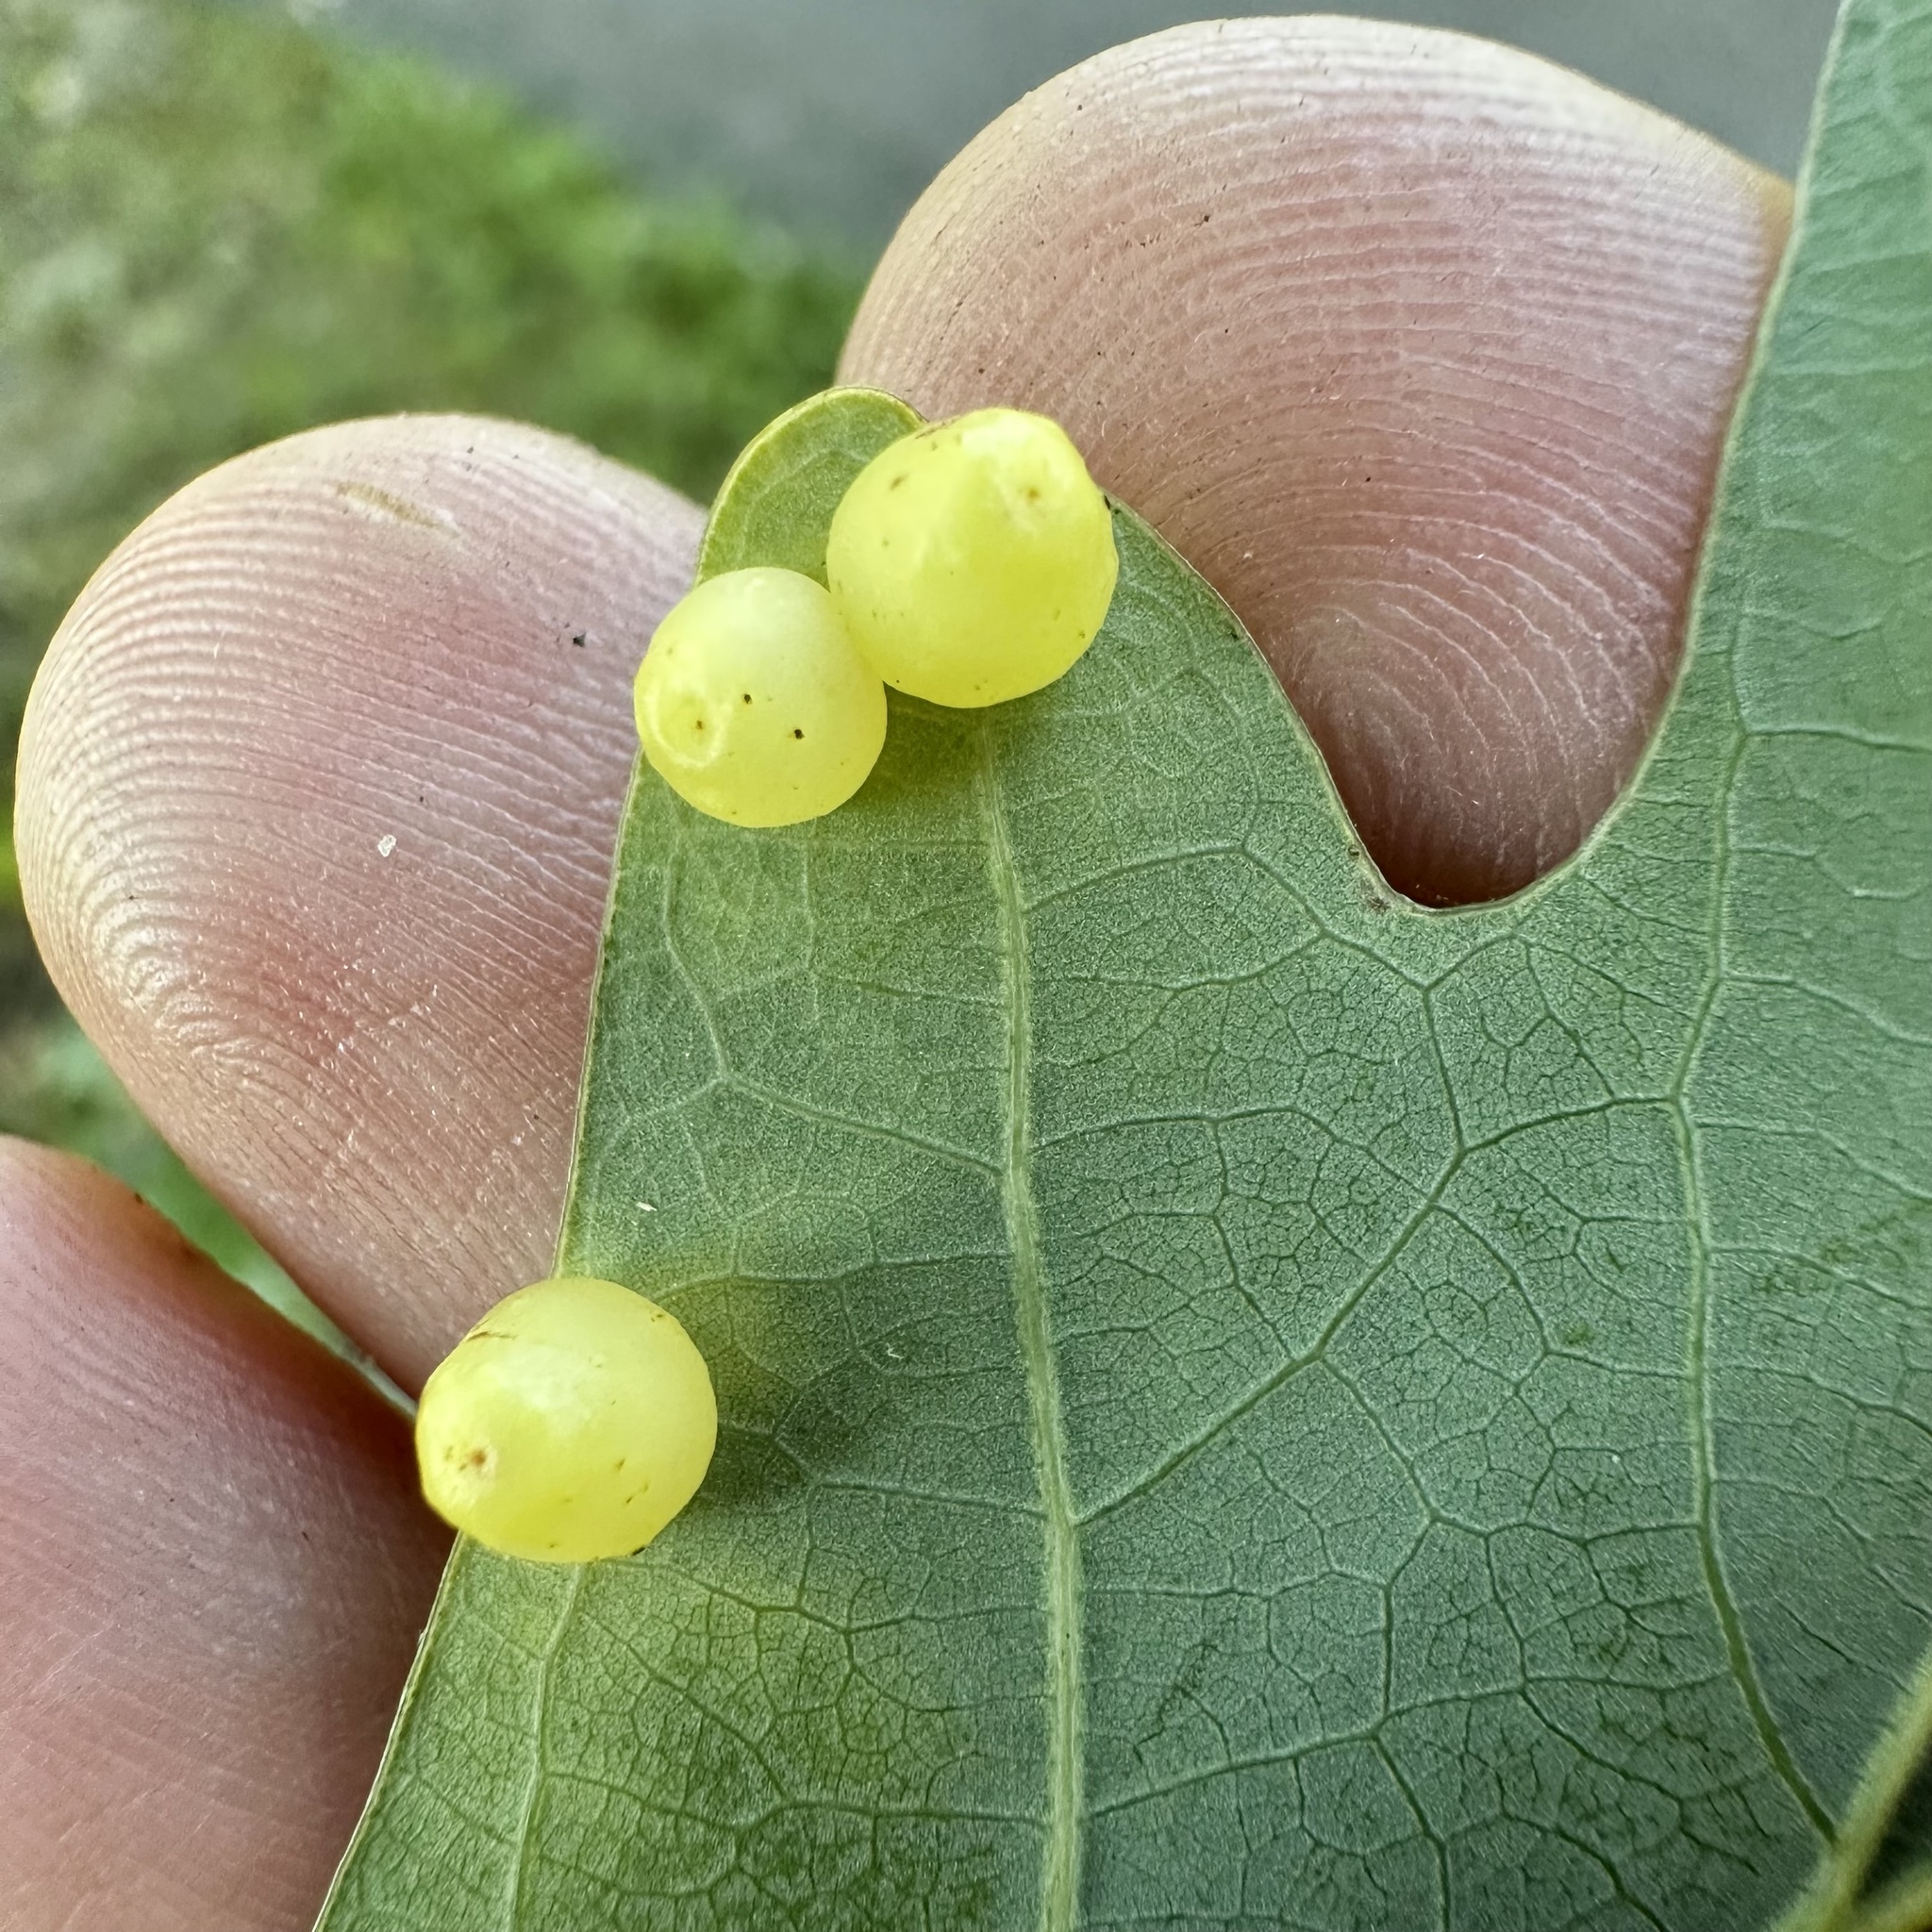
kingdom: Animalia
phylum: Arthropoda
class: Insecta
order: Hymenoptera
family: Cynipidae
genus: Andricus
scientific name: Andricus
